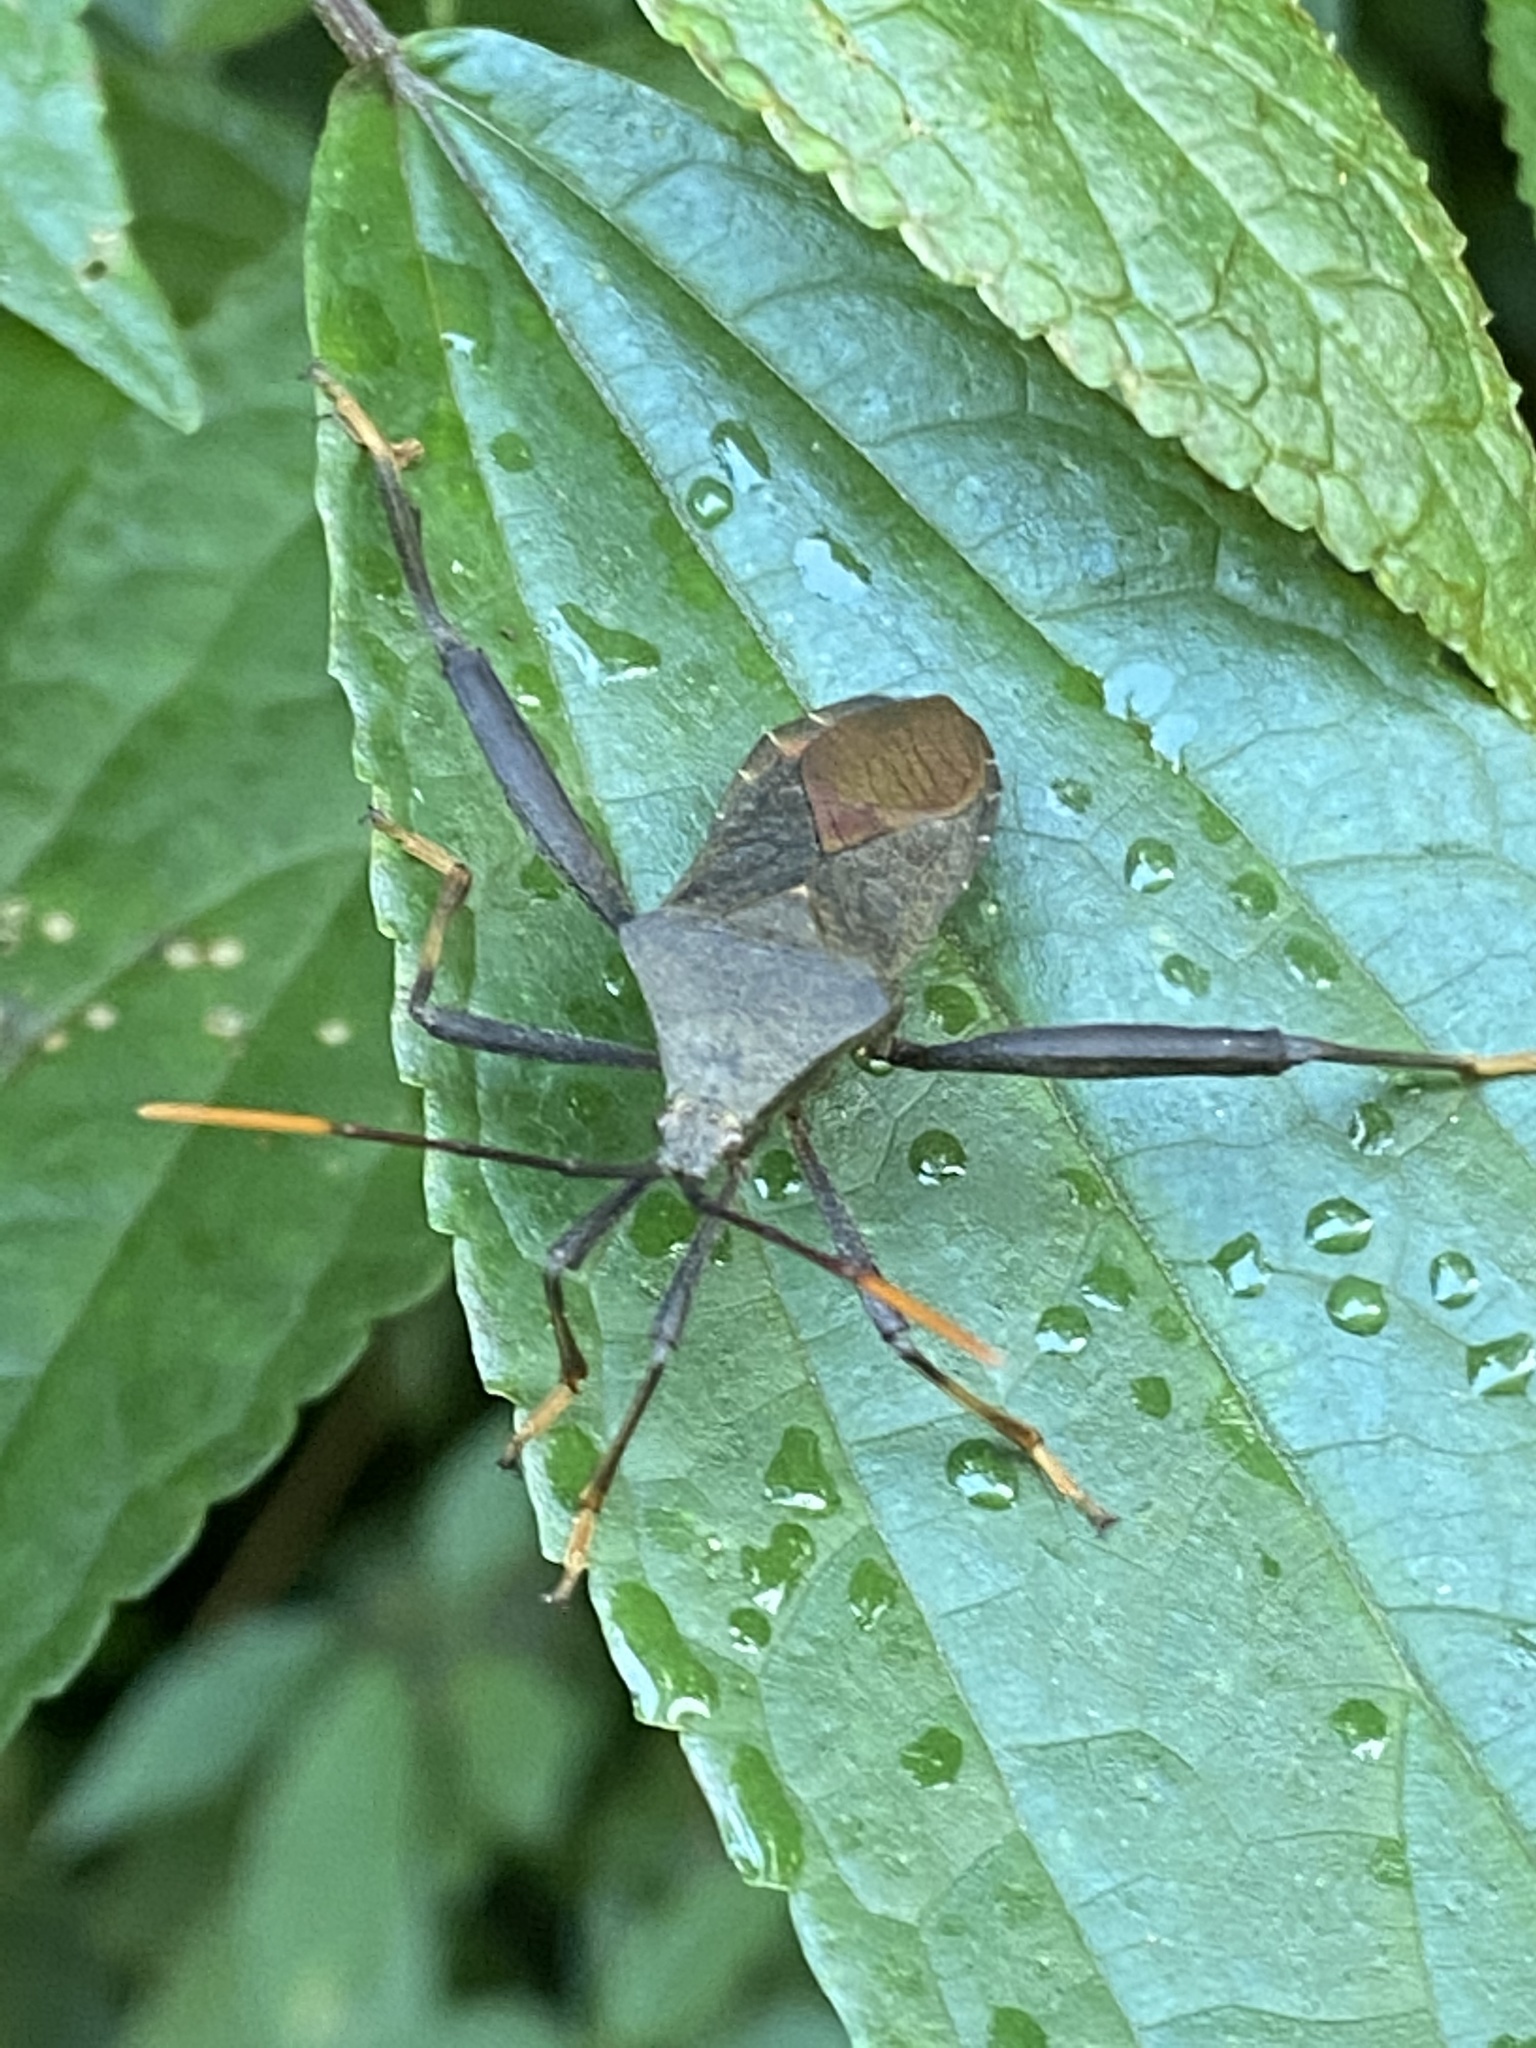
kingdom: Animalia
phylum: Arthropoda
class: Insecta
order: Hemiptera
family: Coreidae
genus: Mictis
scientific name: Mictis fuscipes
